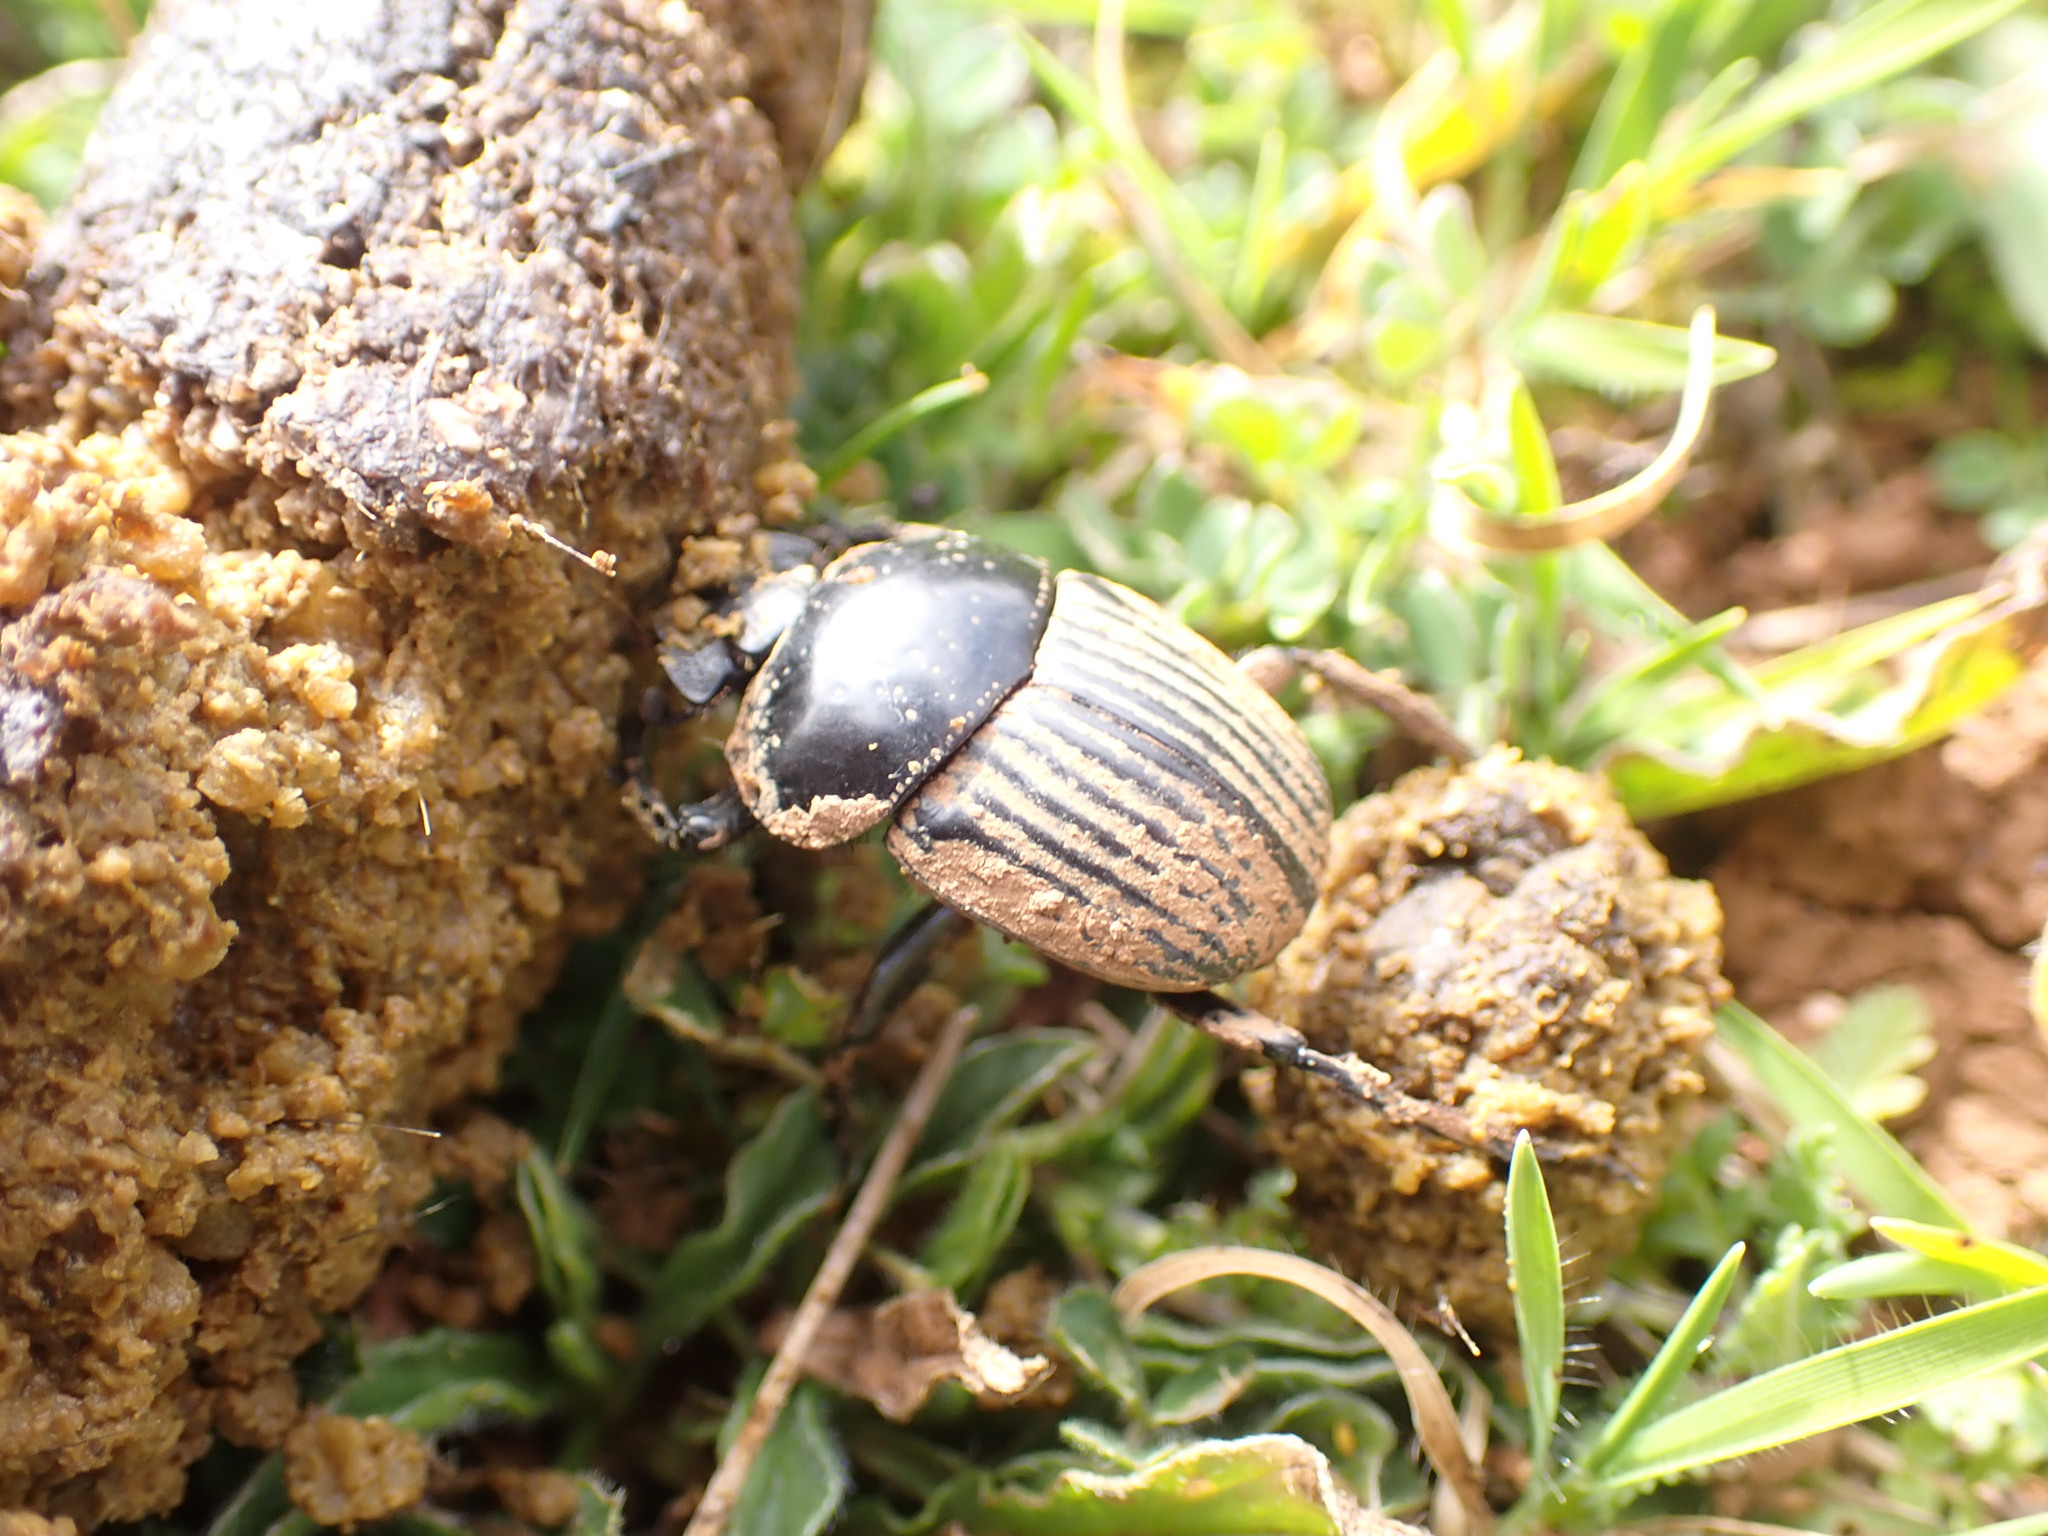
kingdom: Animalia
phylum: Arthropoda
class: Insecta
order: Coleoptera
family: Scarabaeidae
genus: Ateuchetus
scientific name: Ateuchetus laticollis
